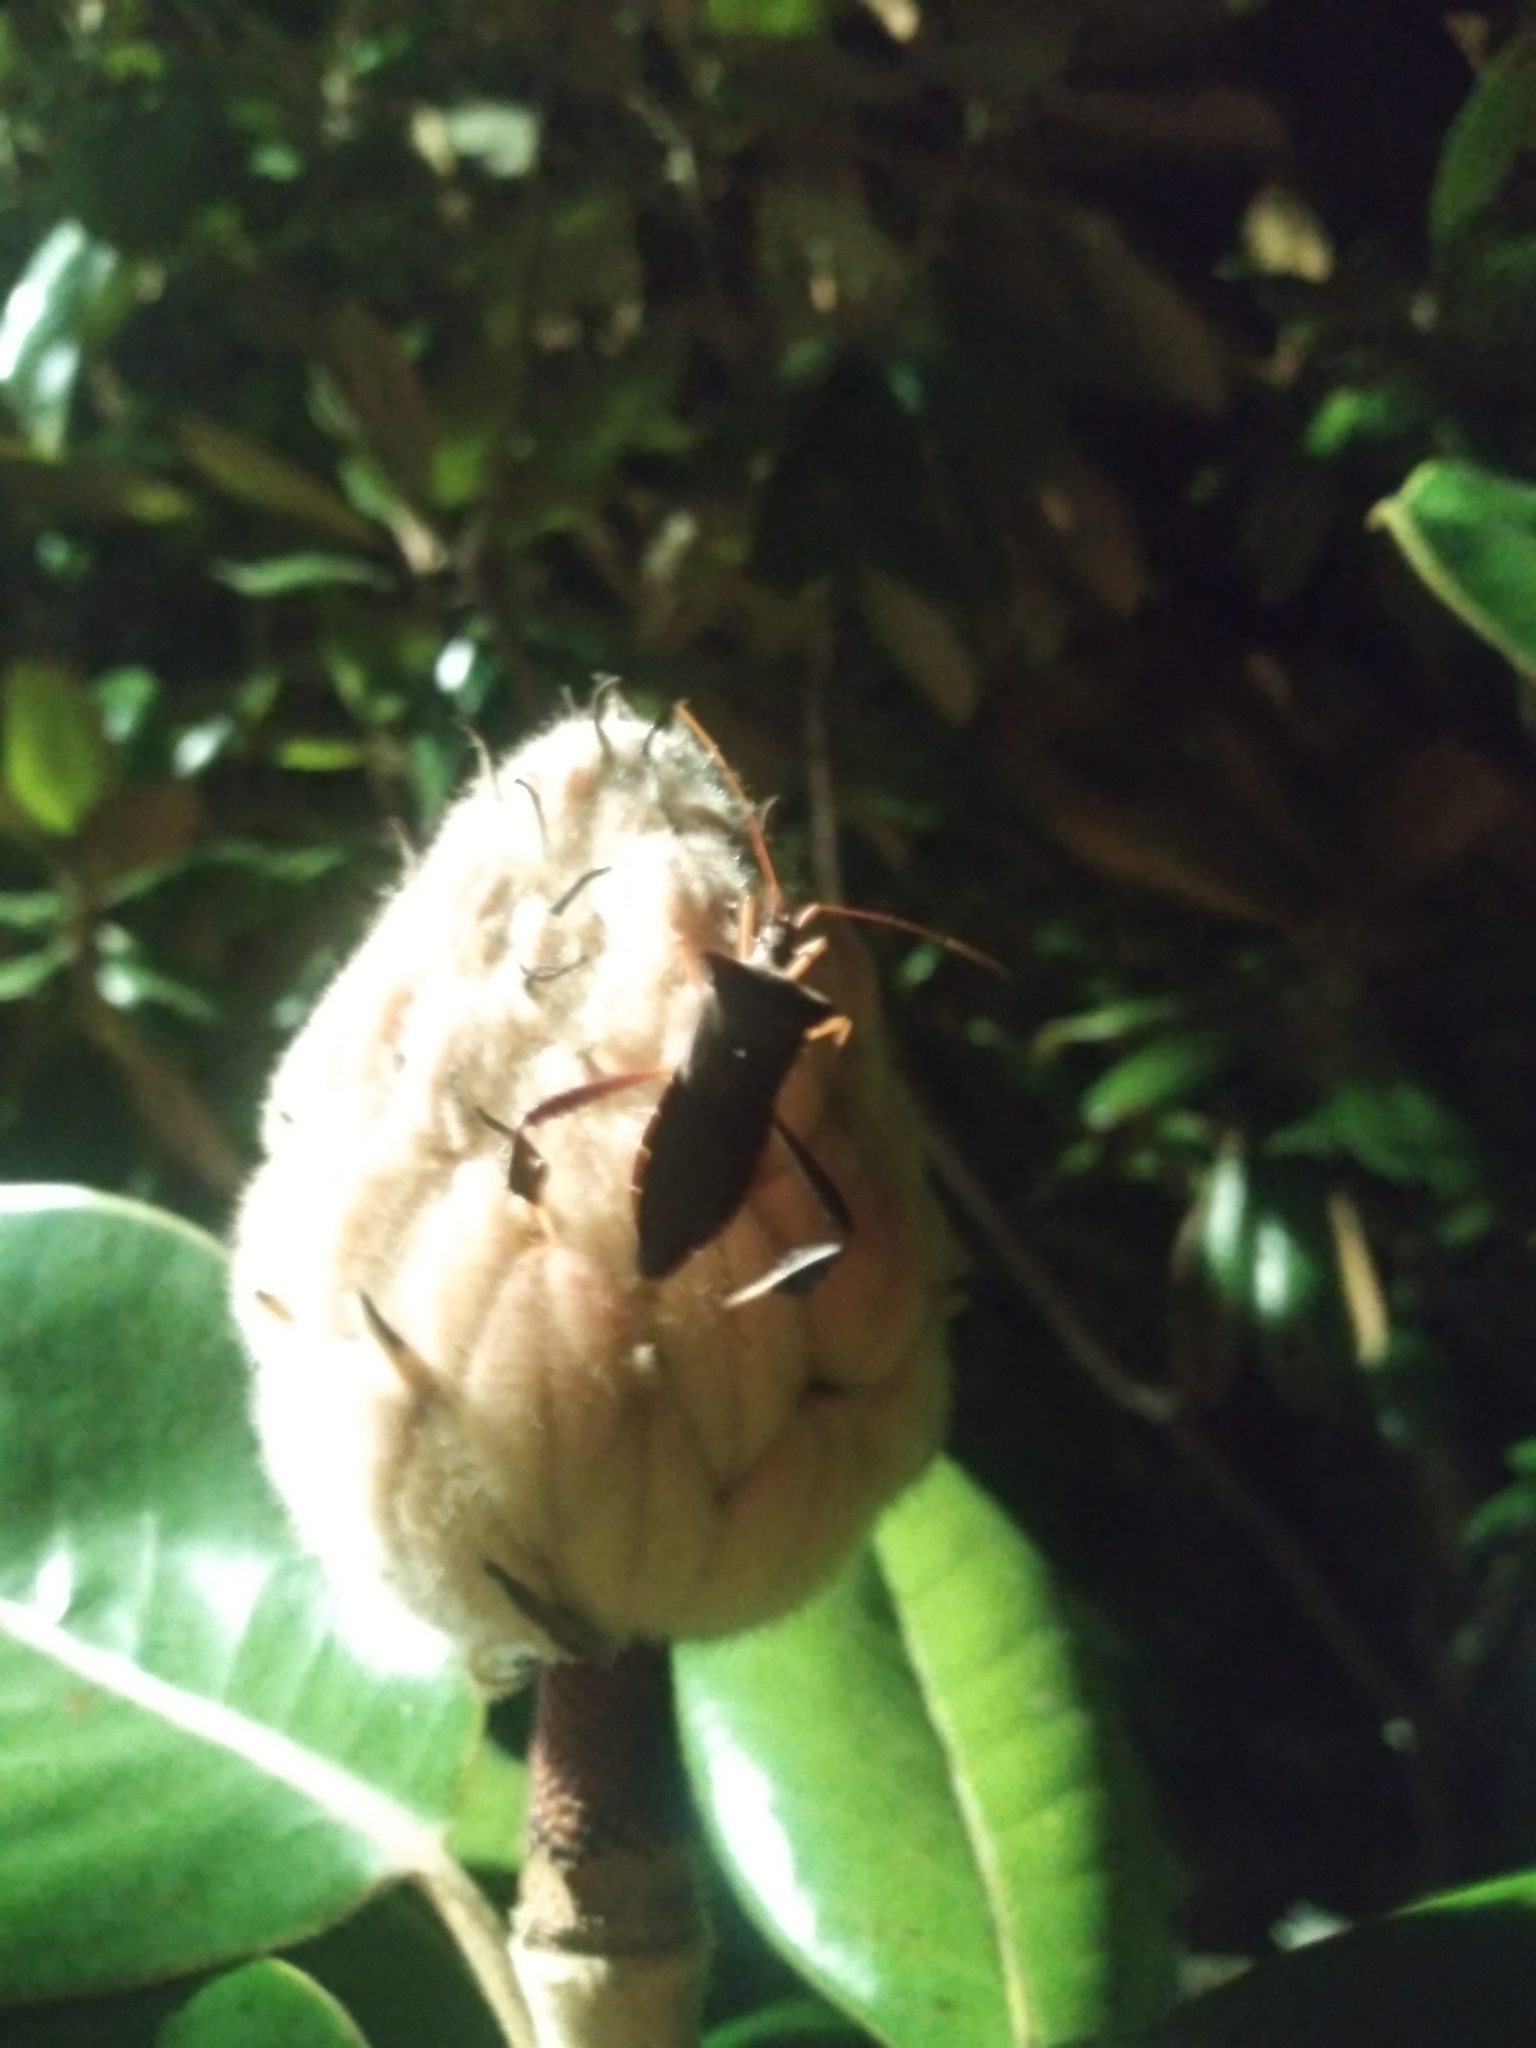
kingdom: Animalia
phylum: Arthropoda
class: Insecta
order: Hemiptera
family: Coreidae
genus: Leptoglossus
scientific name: Leptoglossus fulvicornis
